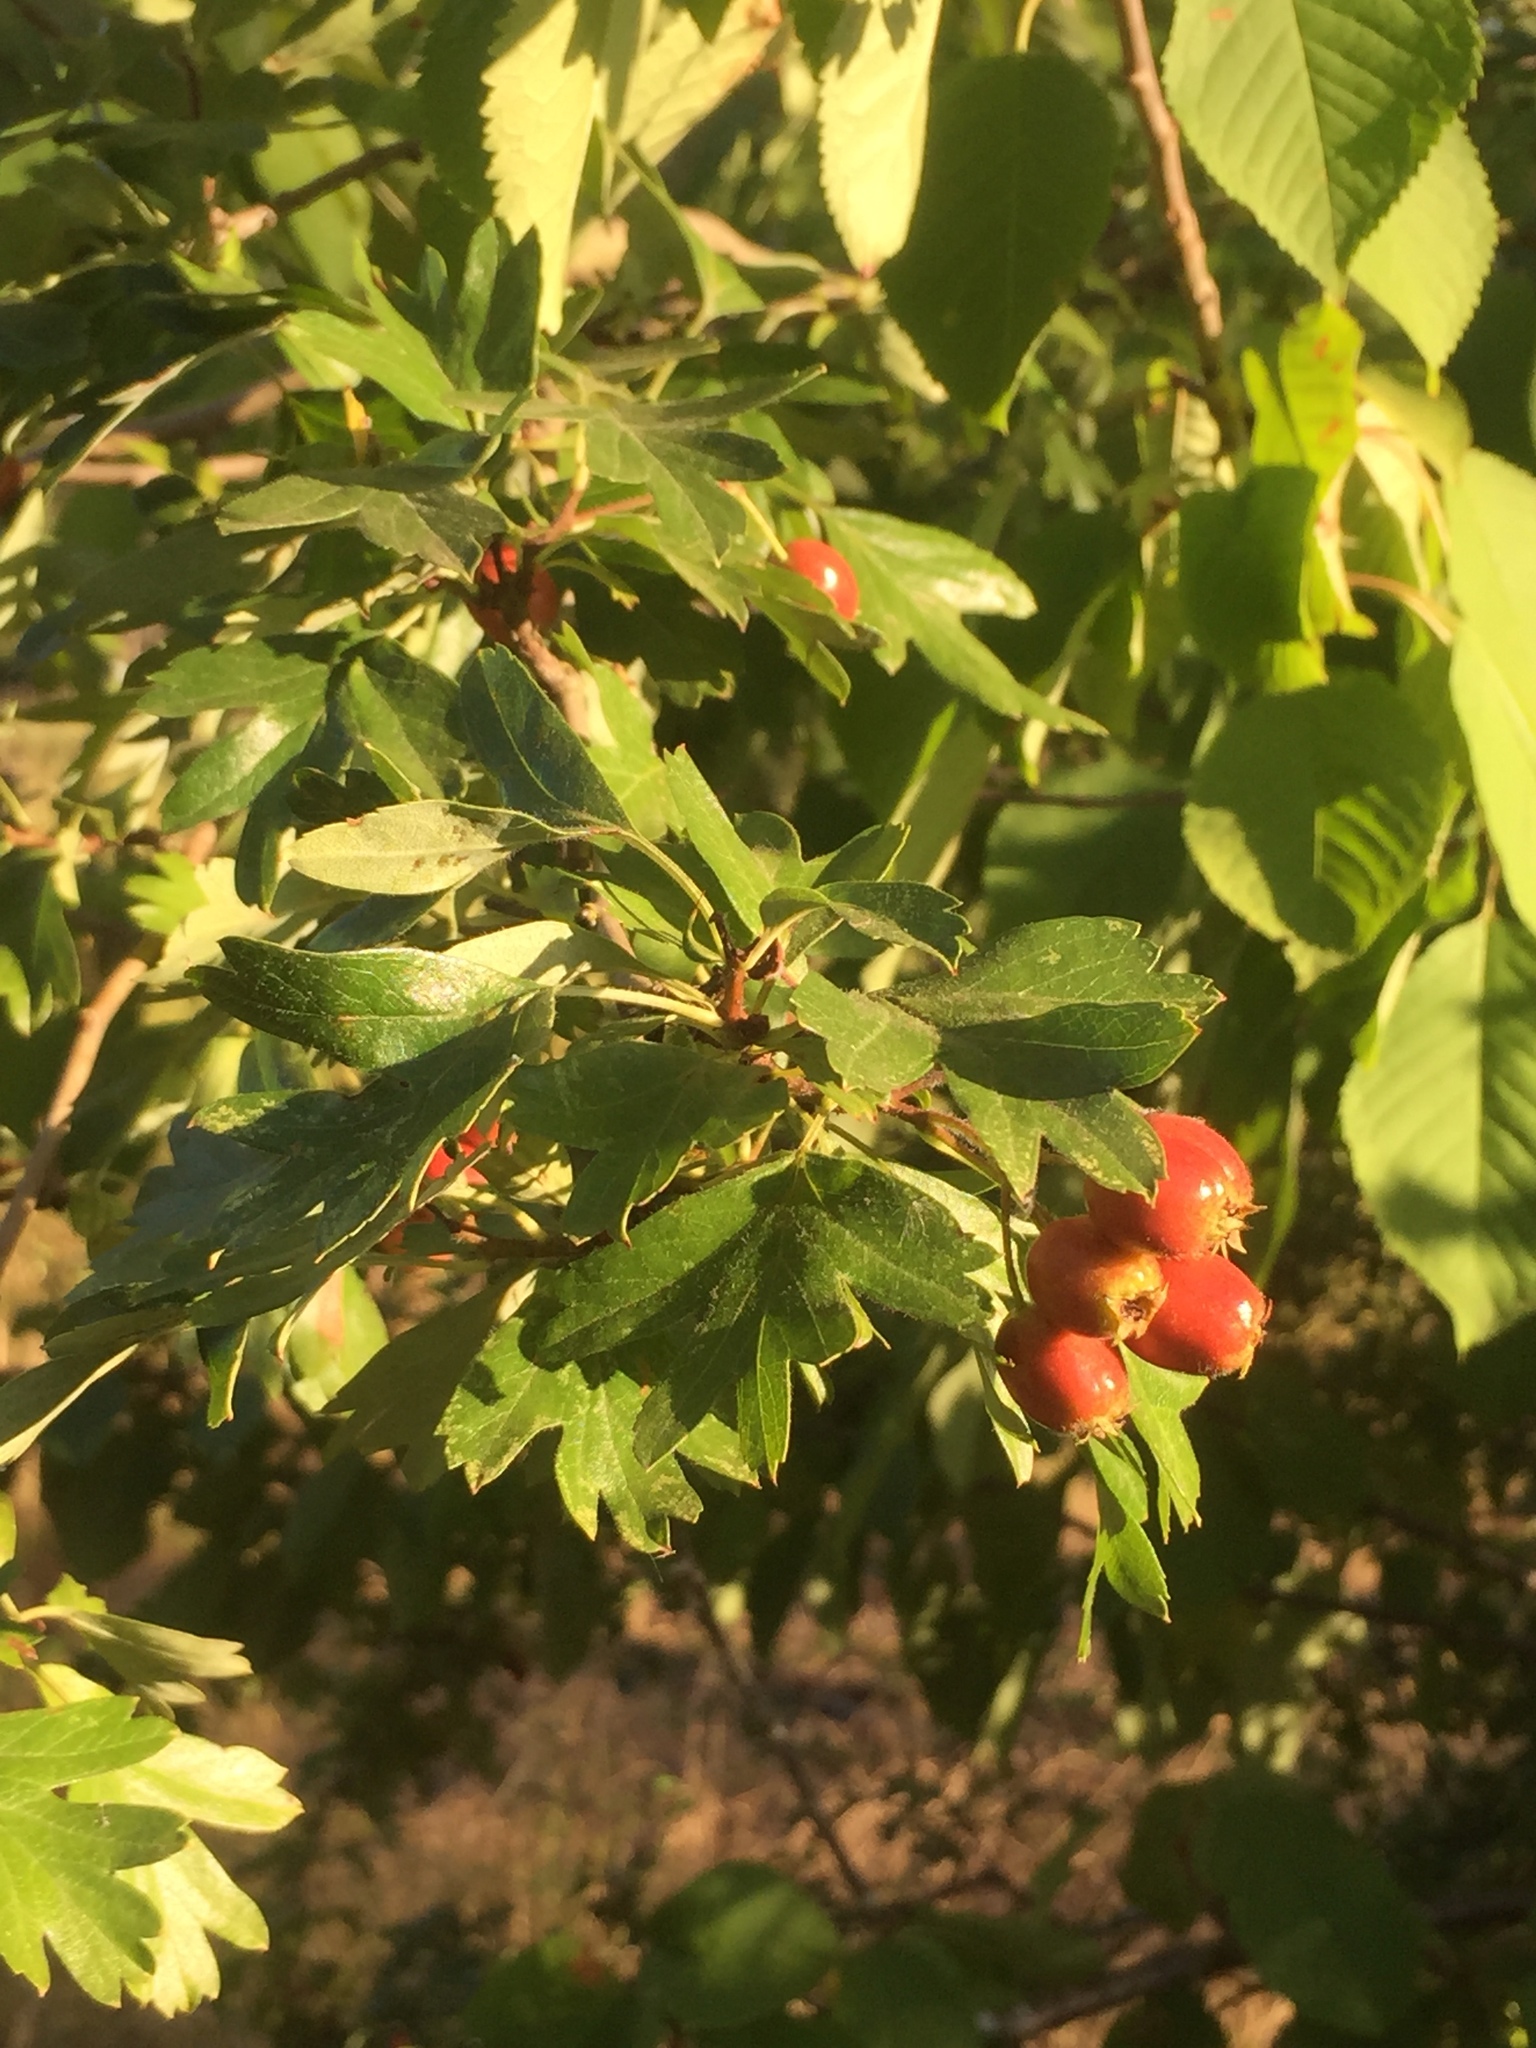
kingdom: Plantae
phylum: Tracheophyta
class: Magnoliopsida
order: Rosales
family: Rosaceae
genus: Crataegus
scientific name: Crataegus monogyna
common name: Hawthorn
